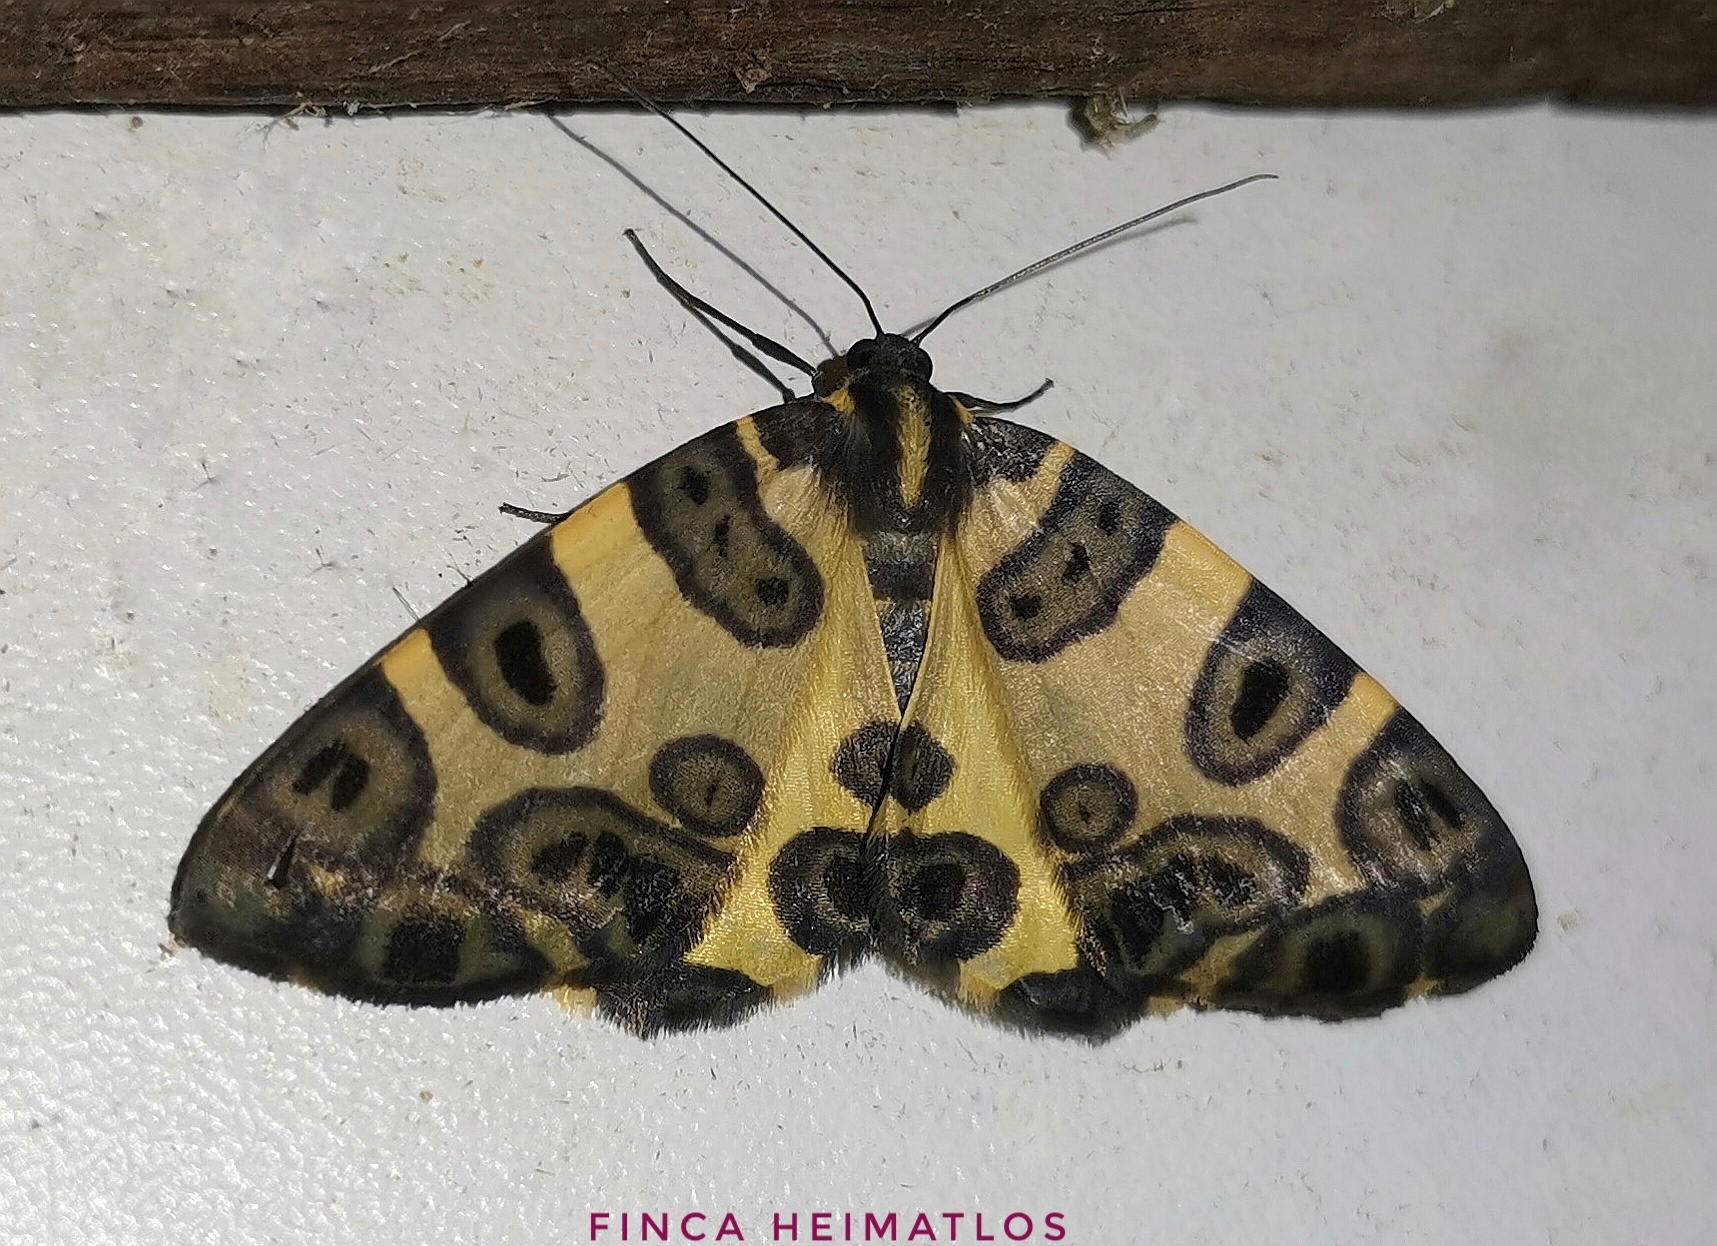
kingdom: Animalia
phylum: Arthropoda
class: Insecta
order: Lepidoptera
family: Geometridae
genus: Pantherodes
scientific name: Pantherodes conglomerata
